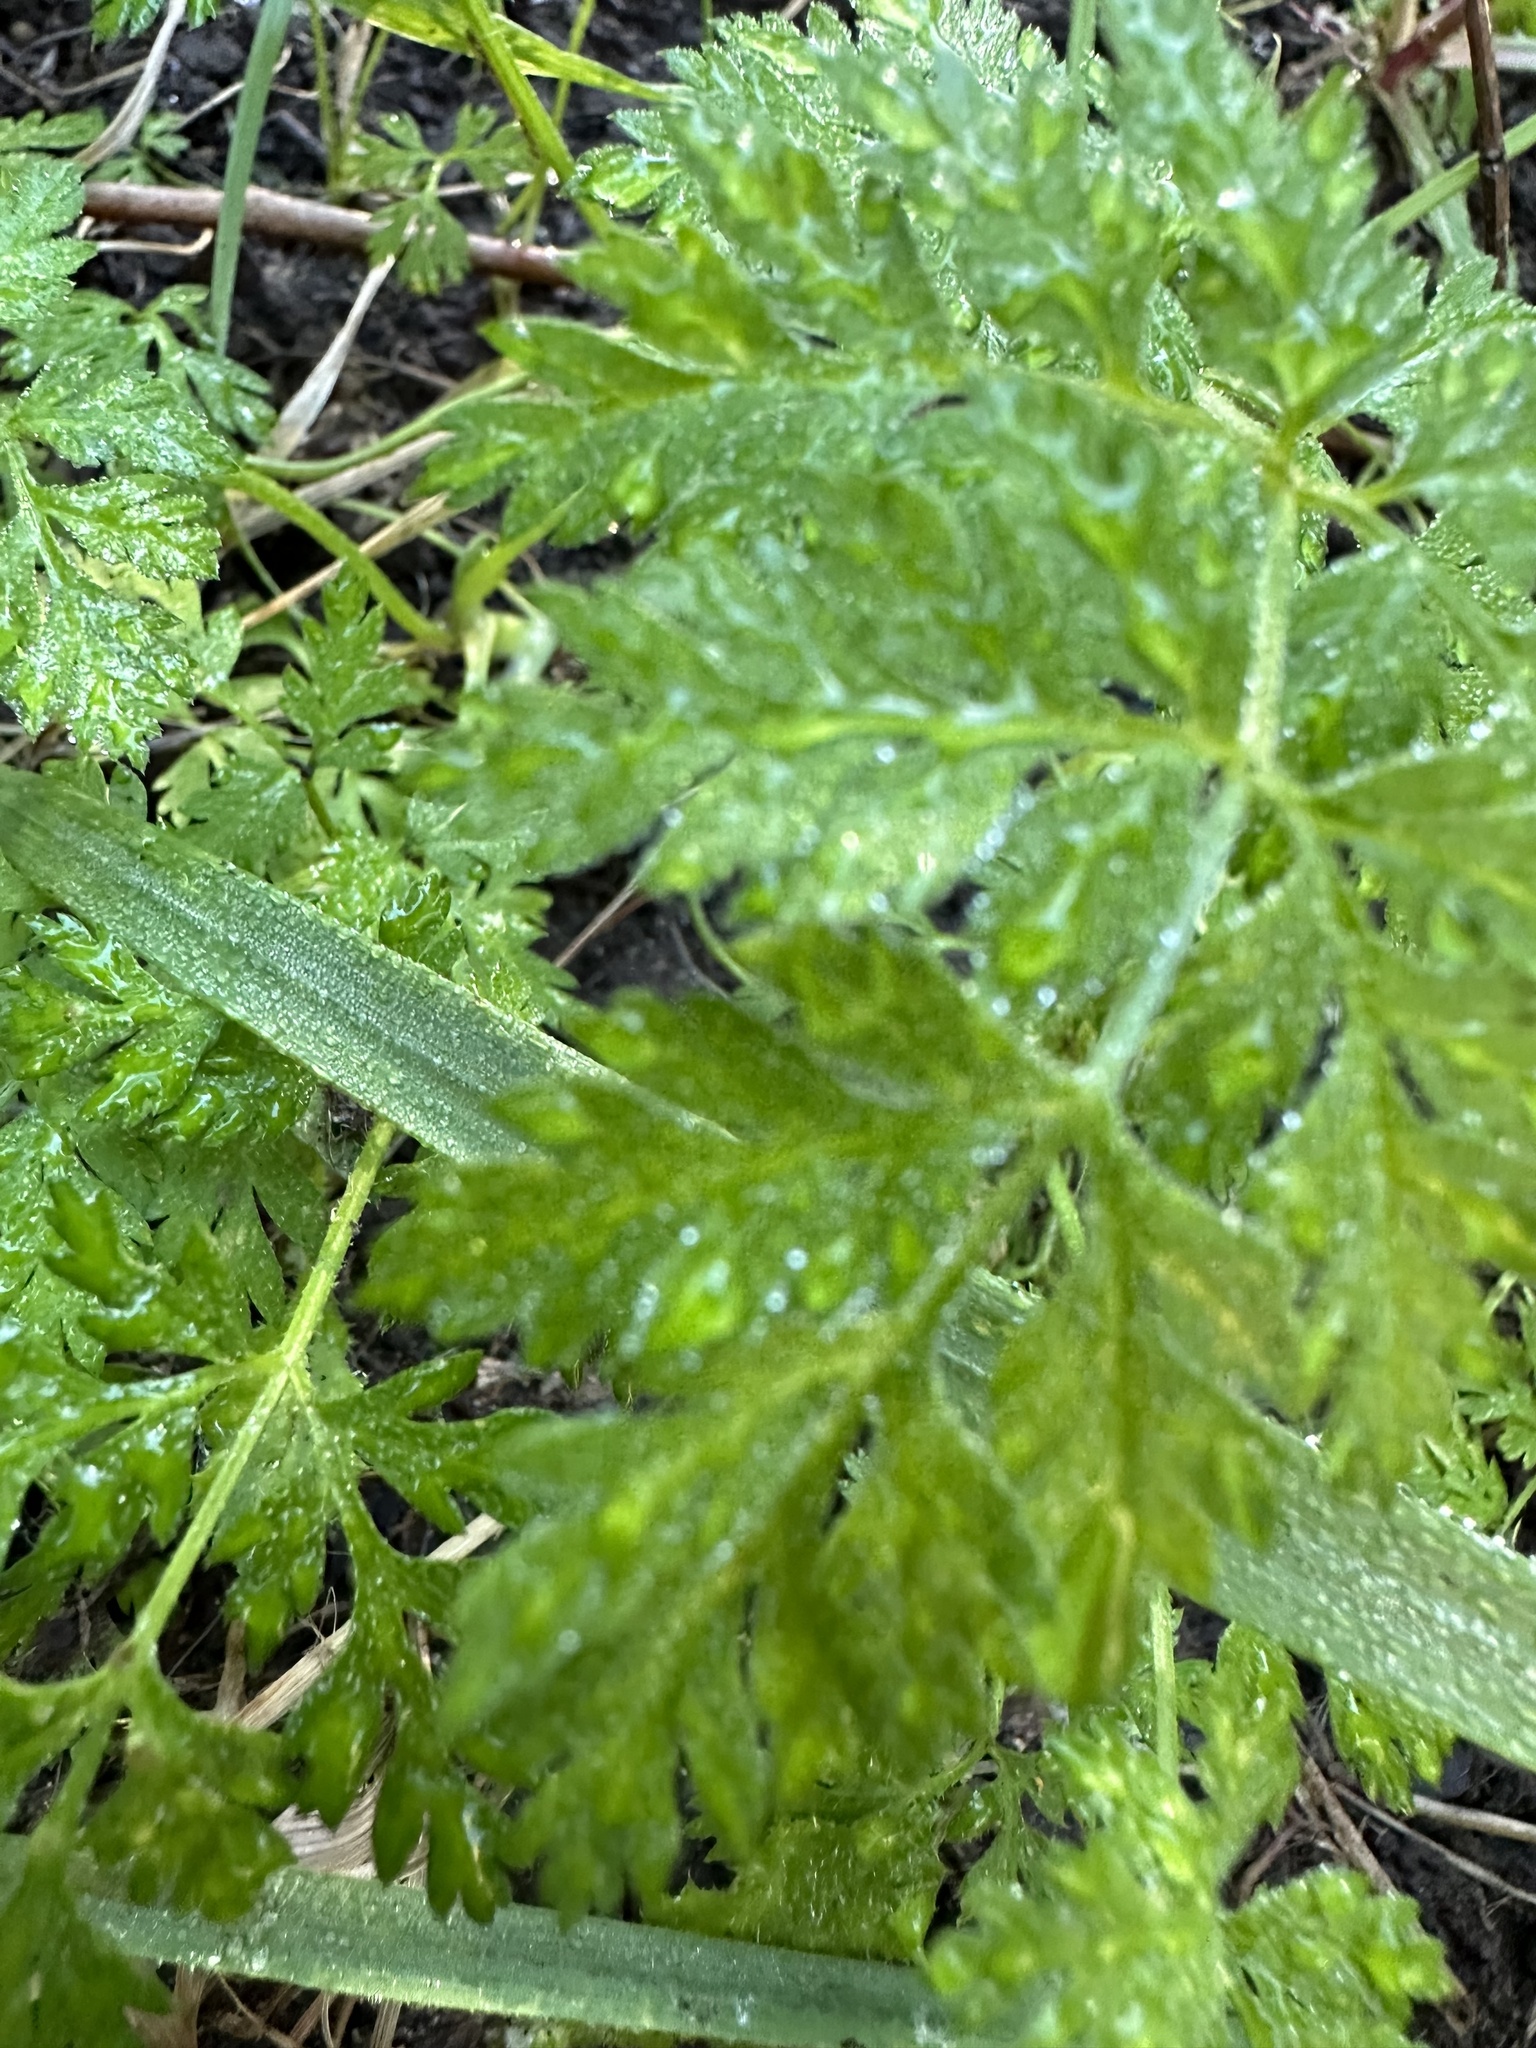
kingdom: Plantae
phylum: Tracheophyta
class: Magnoliopsida
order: Apiales
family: Apiaceae
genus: Conium
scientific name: Conium maculatum
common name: Hemlock
